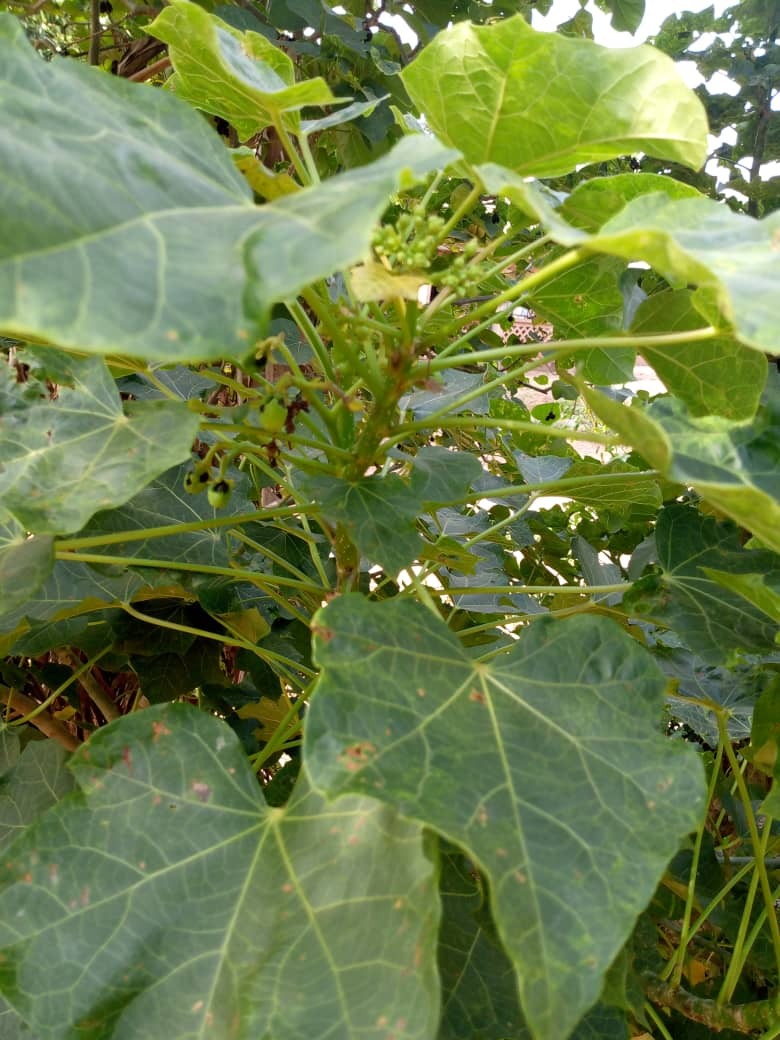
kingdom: Plantae
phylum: Tracheophyta
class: Magnoliopsida
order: Malpighiales
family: Euphorbiaceae
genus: Jatropha
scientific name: Jatropha curcas
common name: Barbados nut
